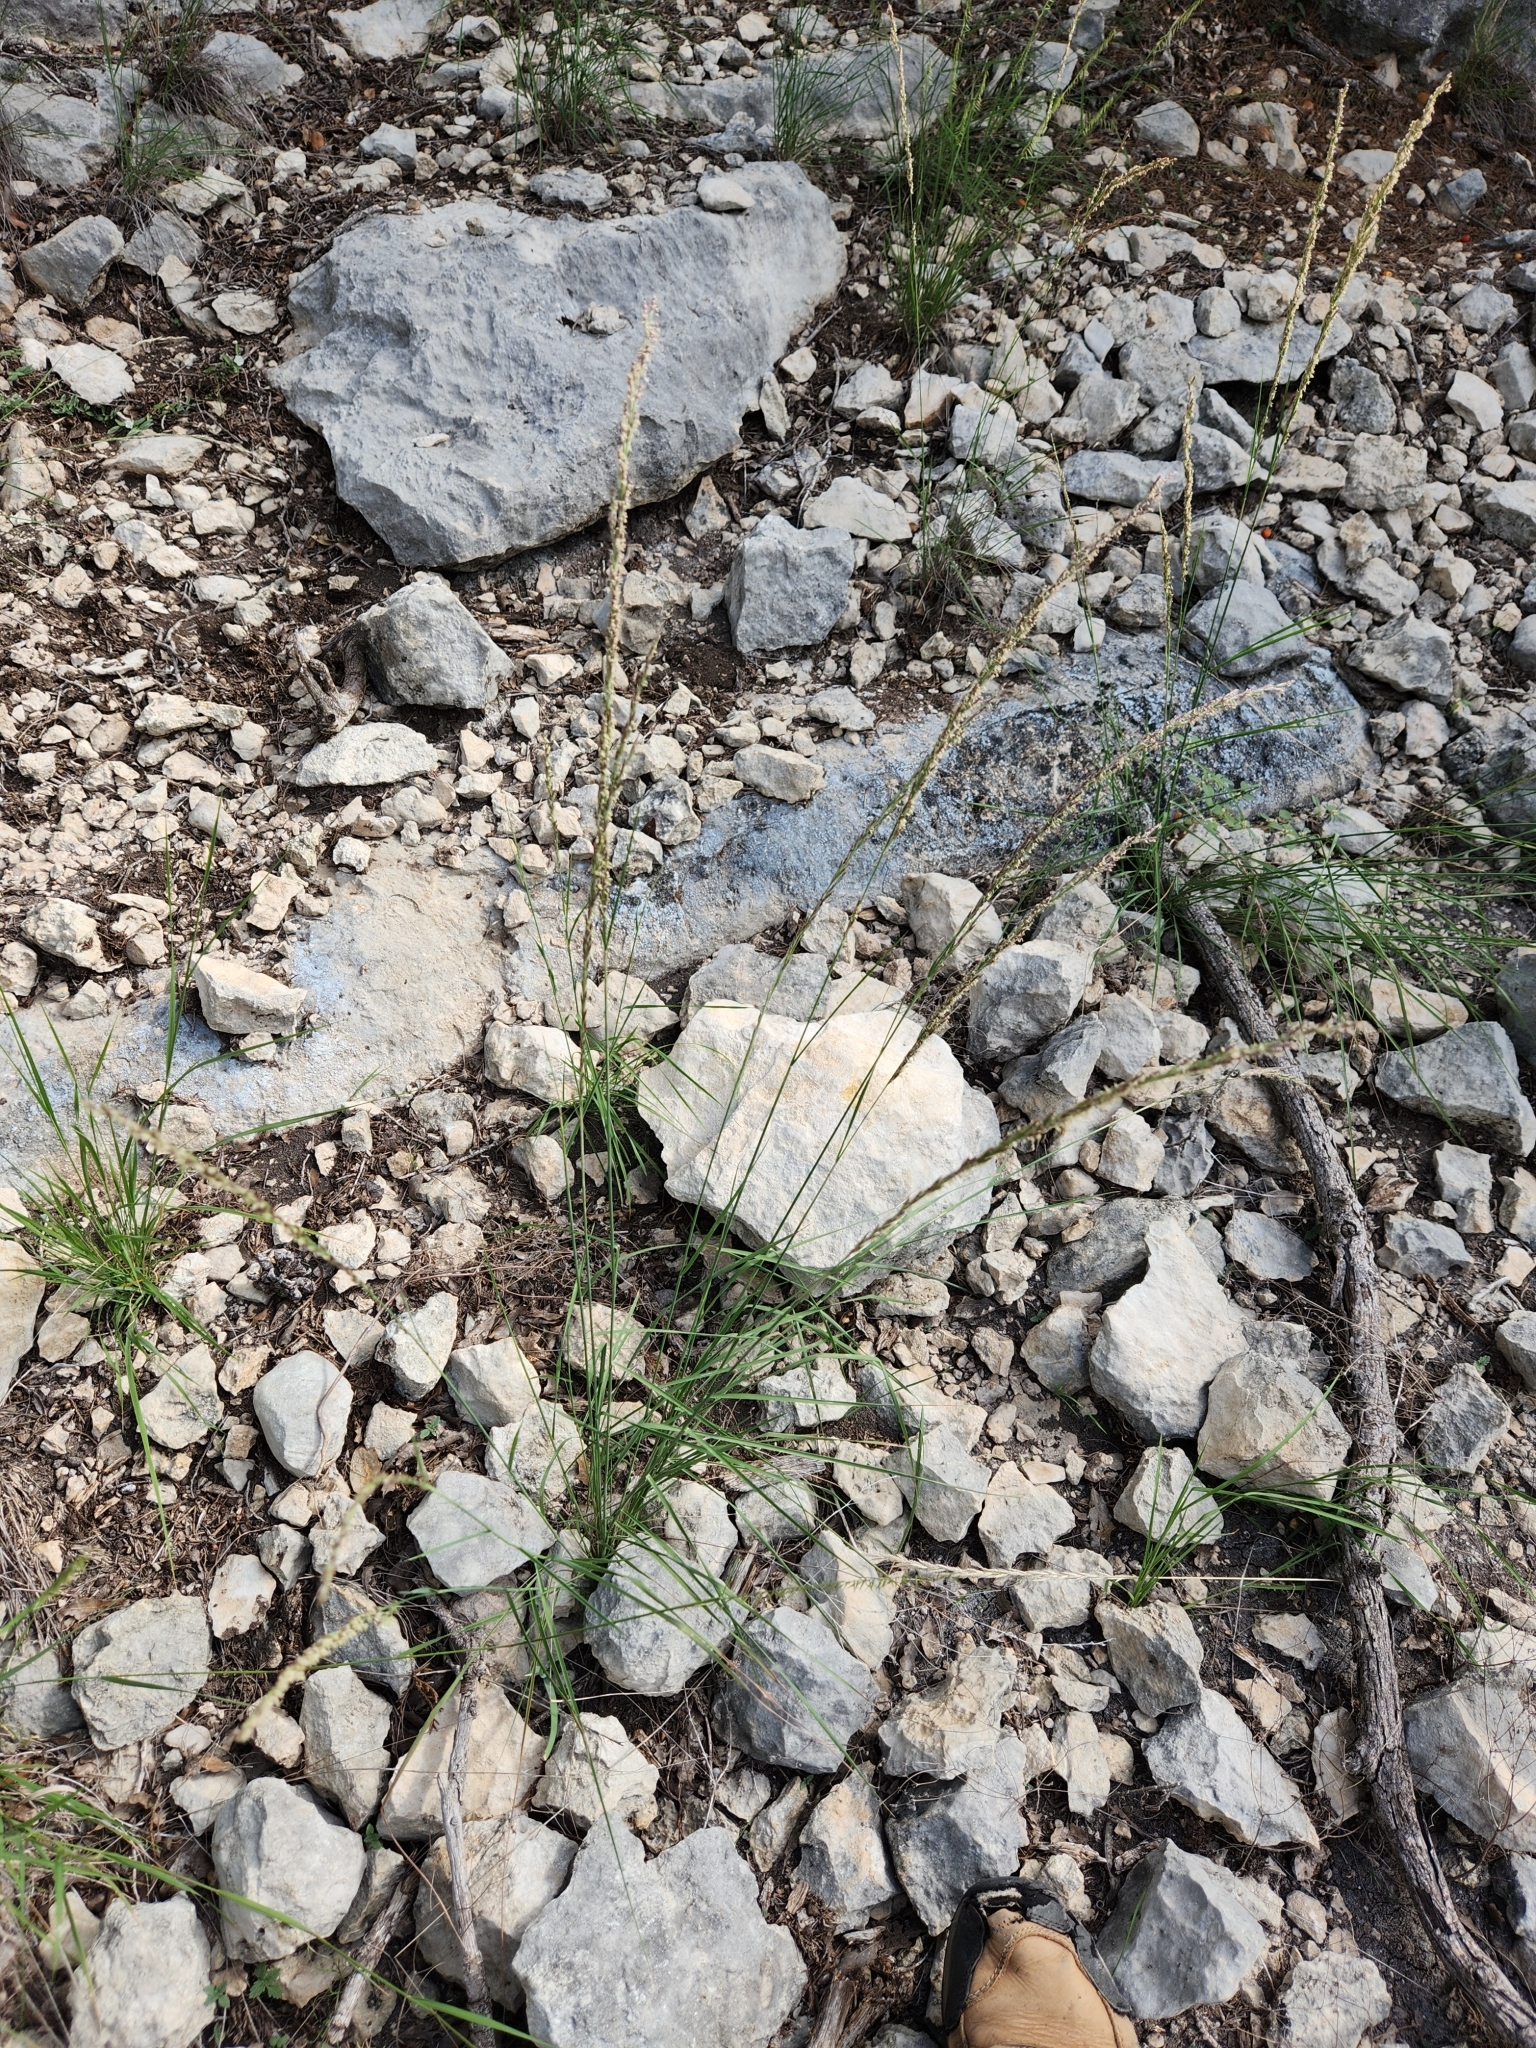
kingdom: Plantae
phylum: Tracheophyta
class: Liliopsida
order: Poales
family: Poaceae
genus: Tridentopsis
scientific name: Tridentopsis mutica
